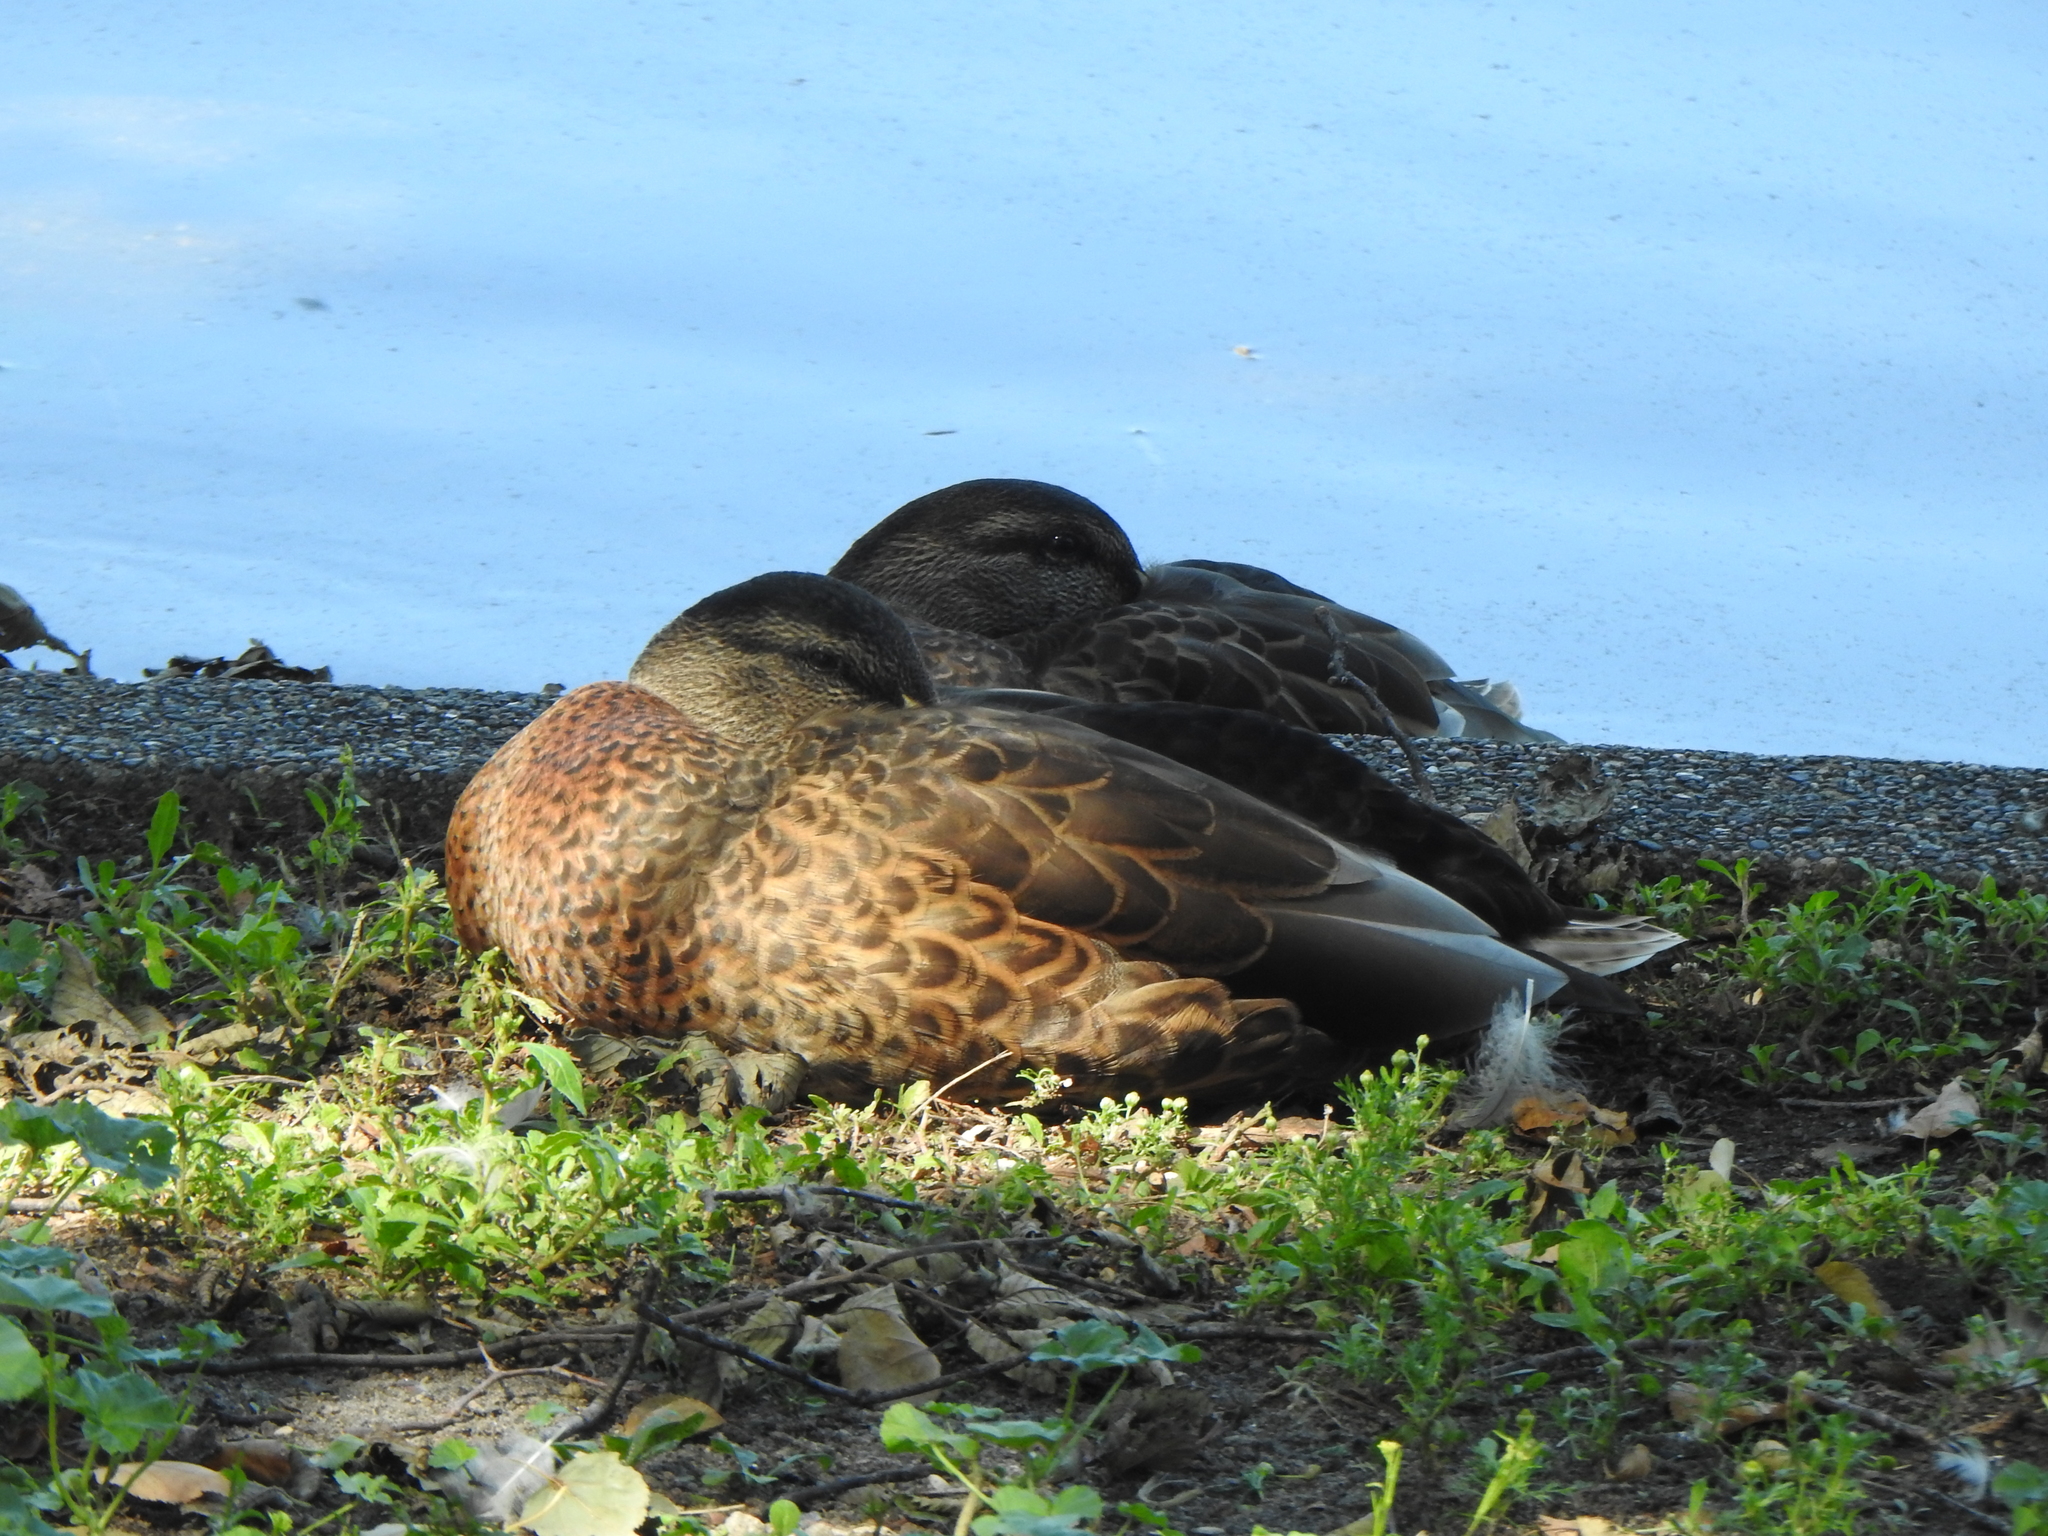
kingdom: Animalia
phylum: Chordata
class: Aves
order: Anseriformes
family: Anatidae
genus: Anas
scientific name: Anas platyrhynchos
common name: Mallard
